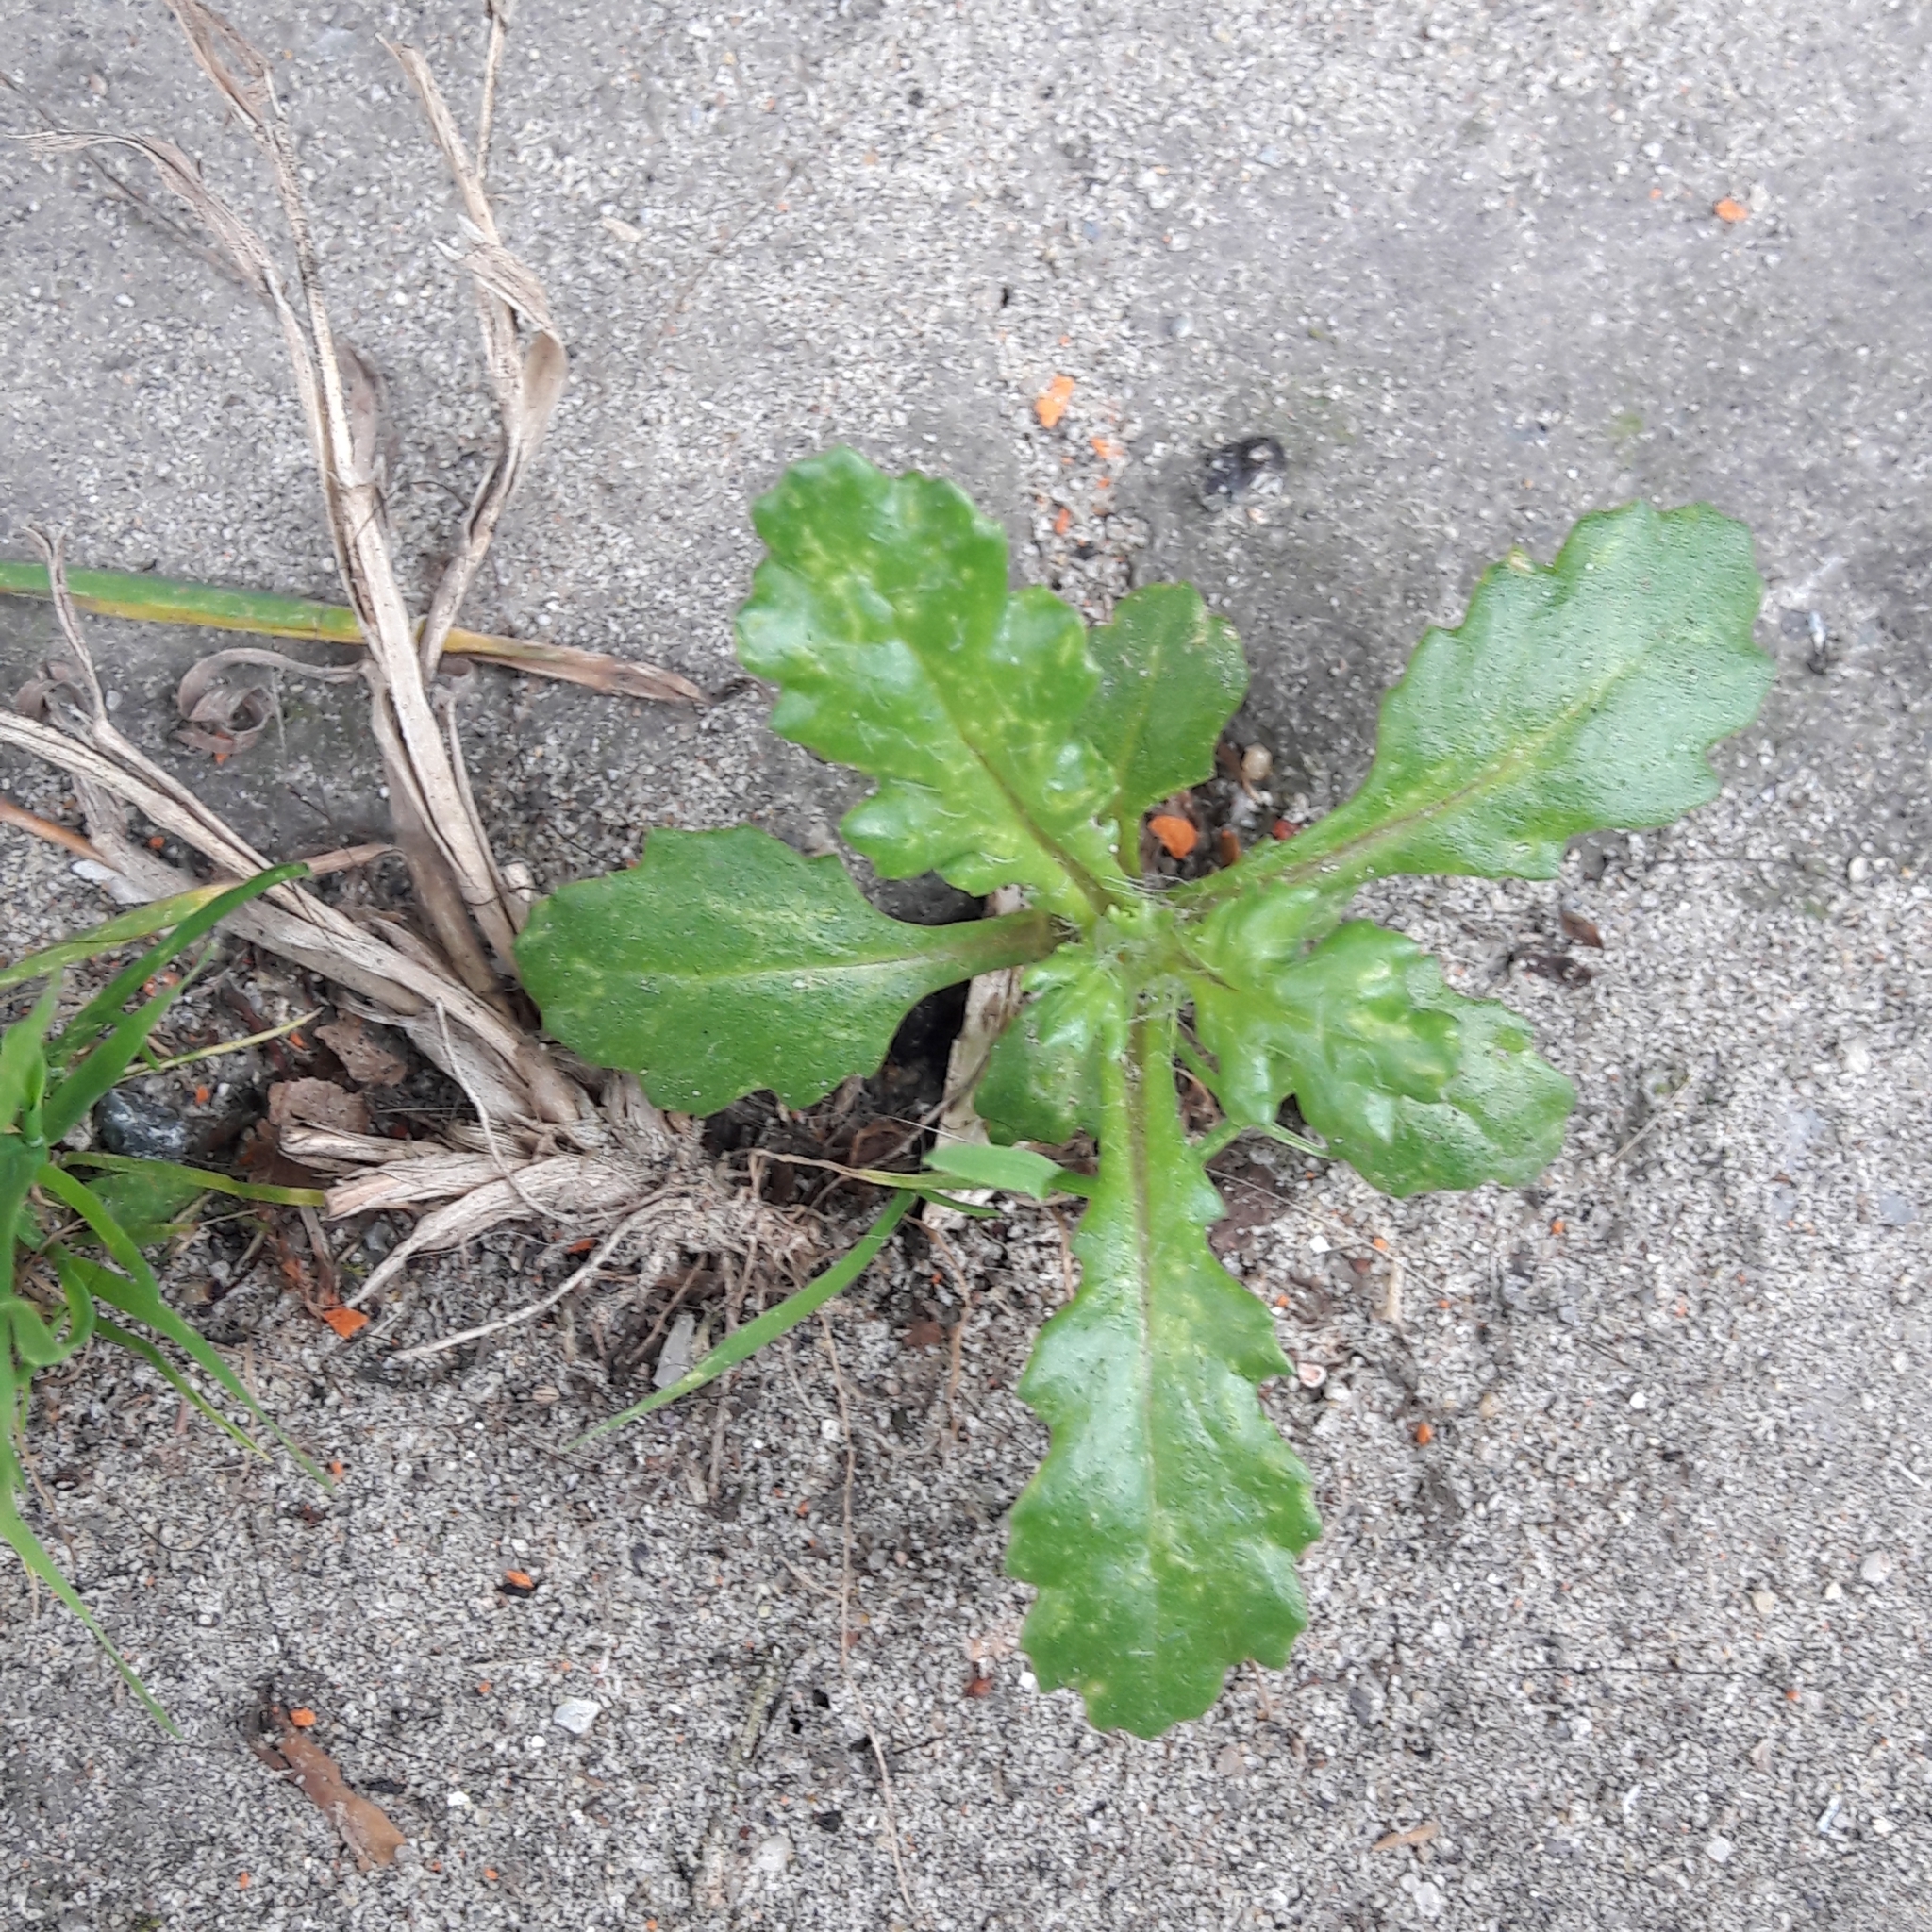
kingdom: Plantae
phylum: Tracheophyta
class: Magnoliopsida
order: Asterales
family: Asteraceae
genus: Senecio
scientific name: Senecio vulgaris
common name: Old-man-in-the-spring
